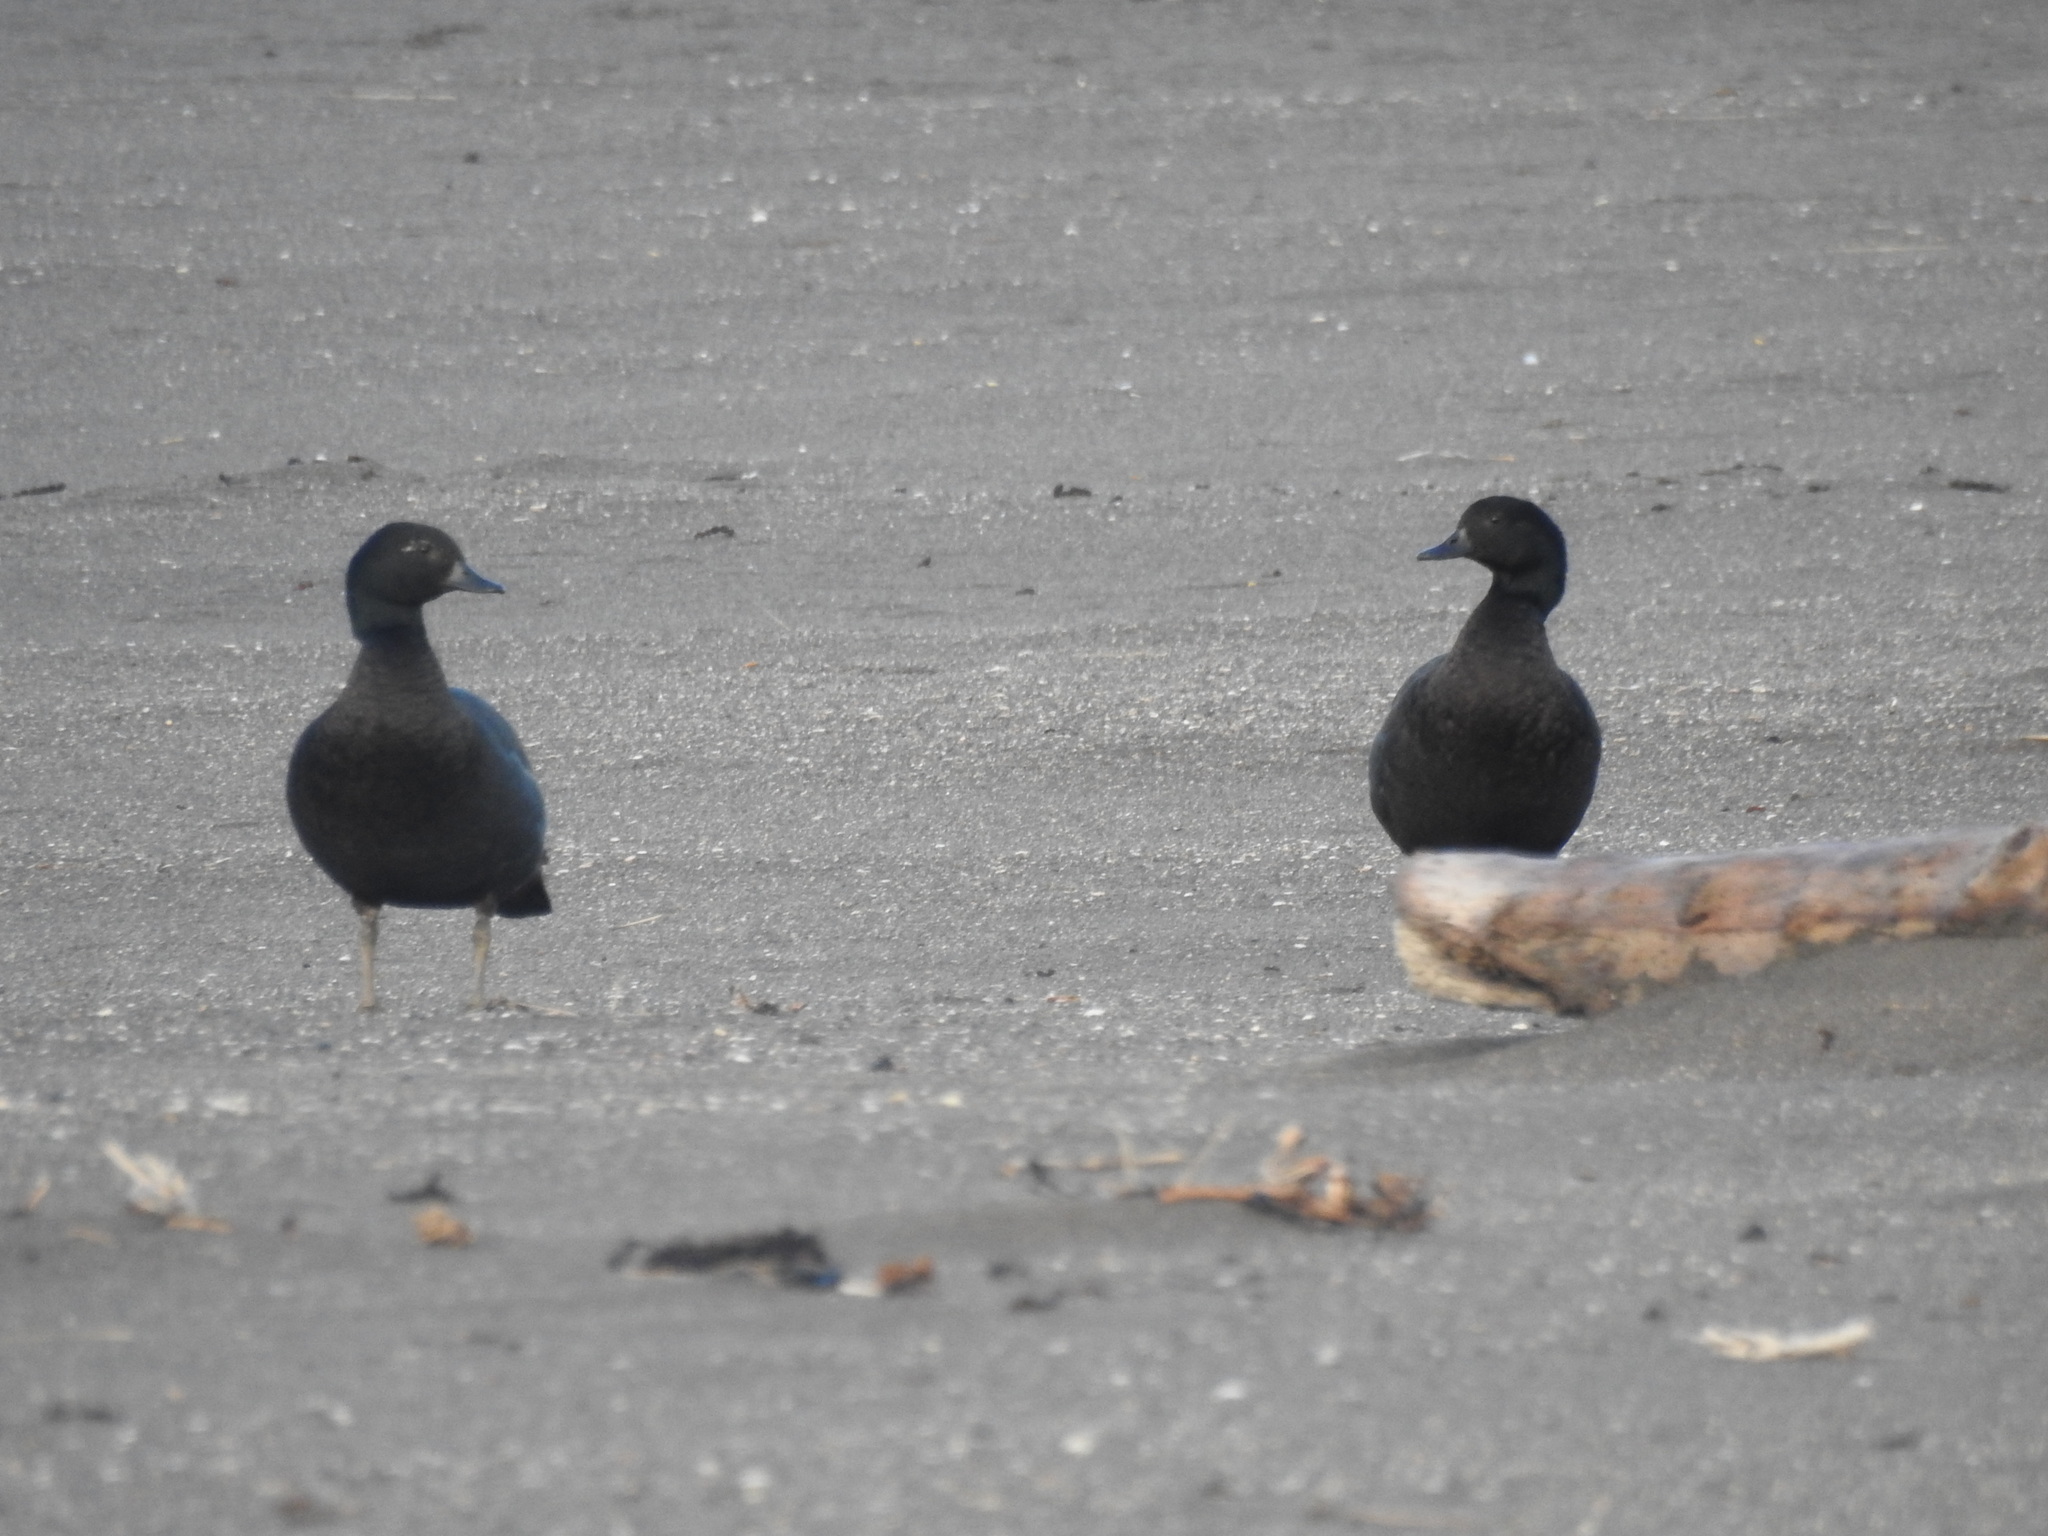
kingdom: Animalia
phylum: Chordata
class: Aves
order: Anseriformes
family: Anatidae
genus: Tadorna
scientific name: Tadorna variegata
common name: Paradise shelduck
